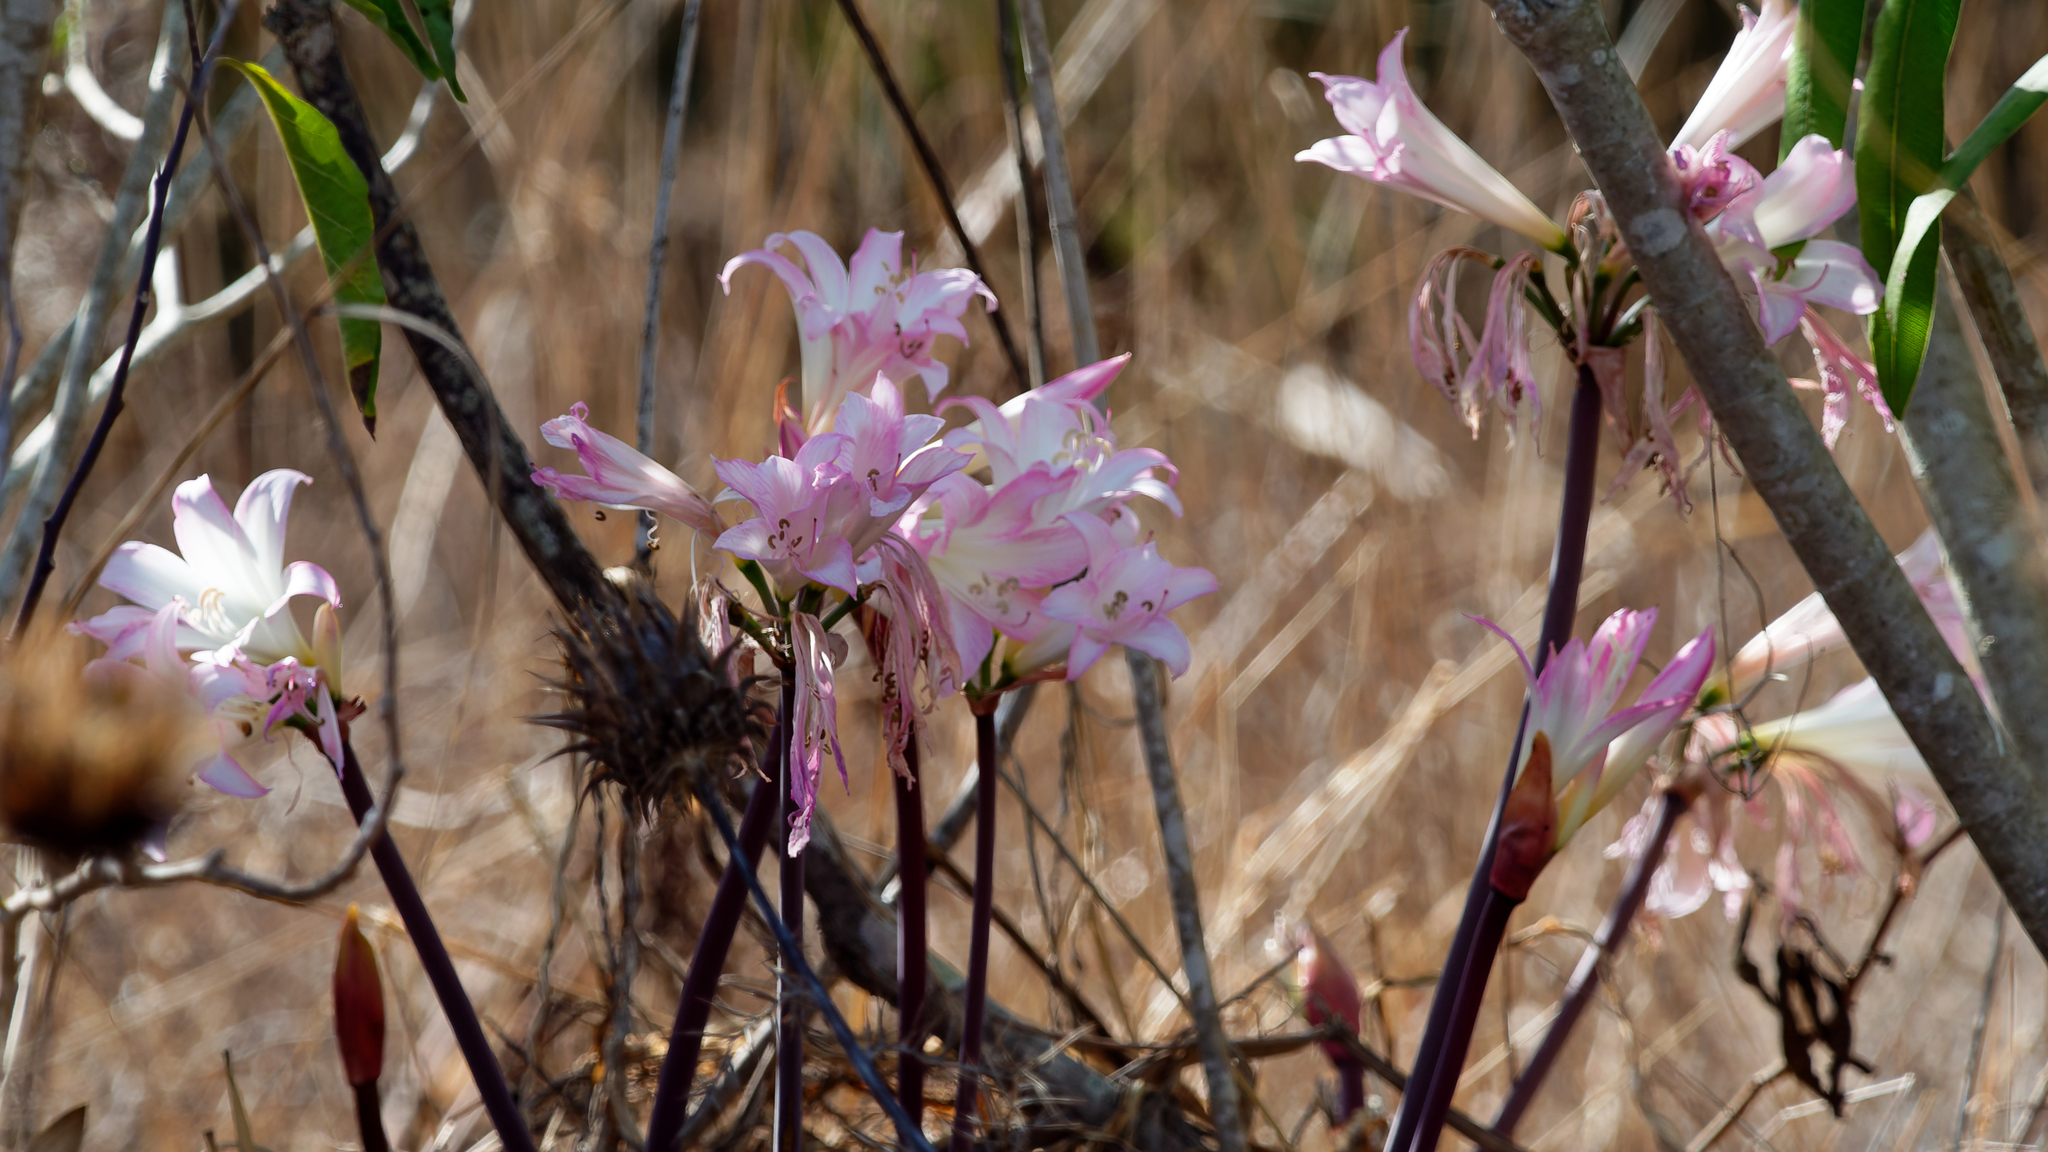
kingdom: Plantae
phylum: Tracheophyta
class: Liliopsida
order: Asparagales
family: Amaryllidaceae
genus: Amaryllis
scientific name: Amaryllis belladonna
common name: Jersey lily
